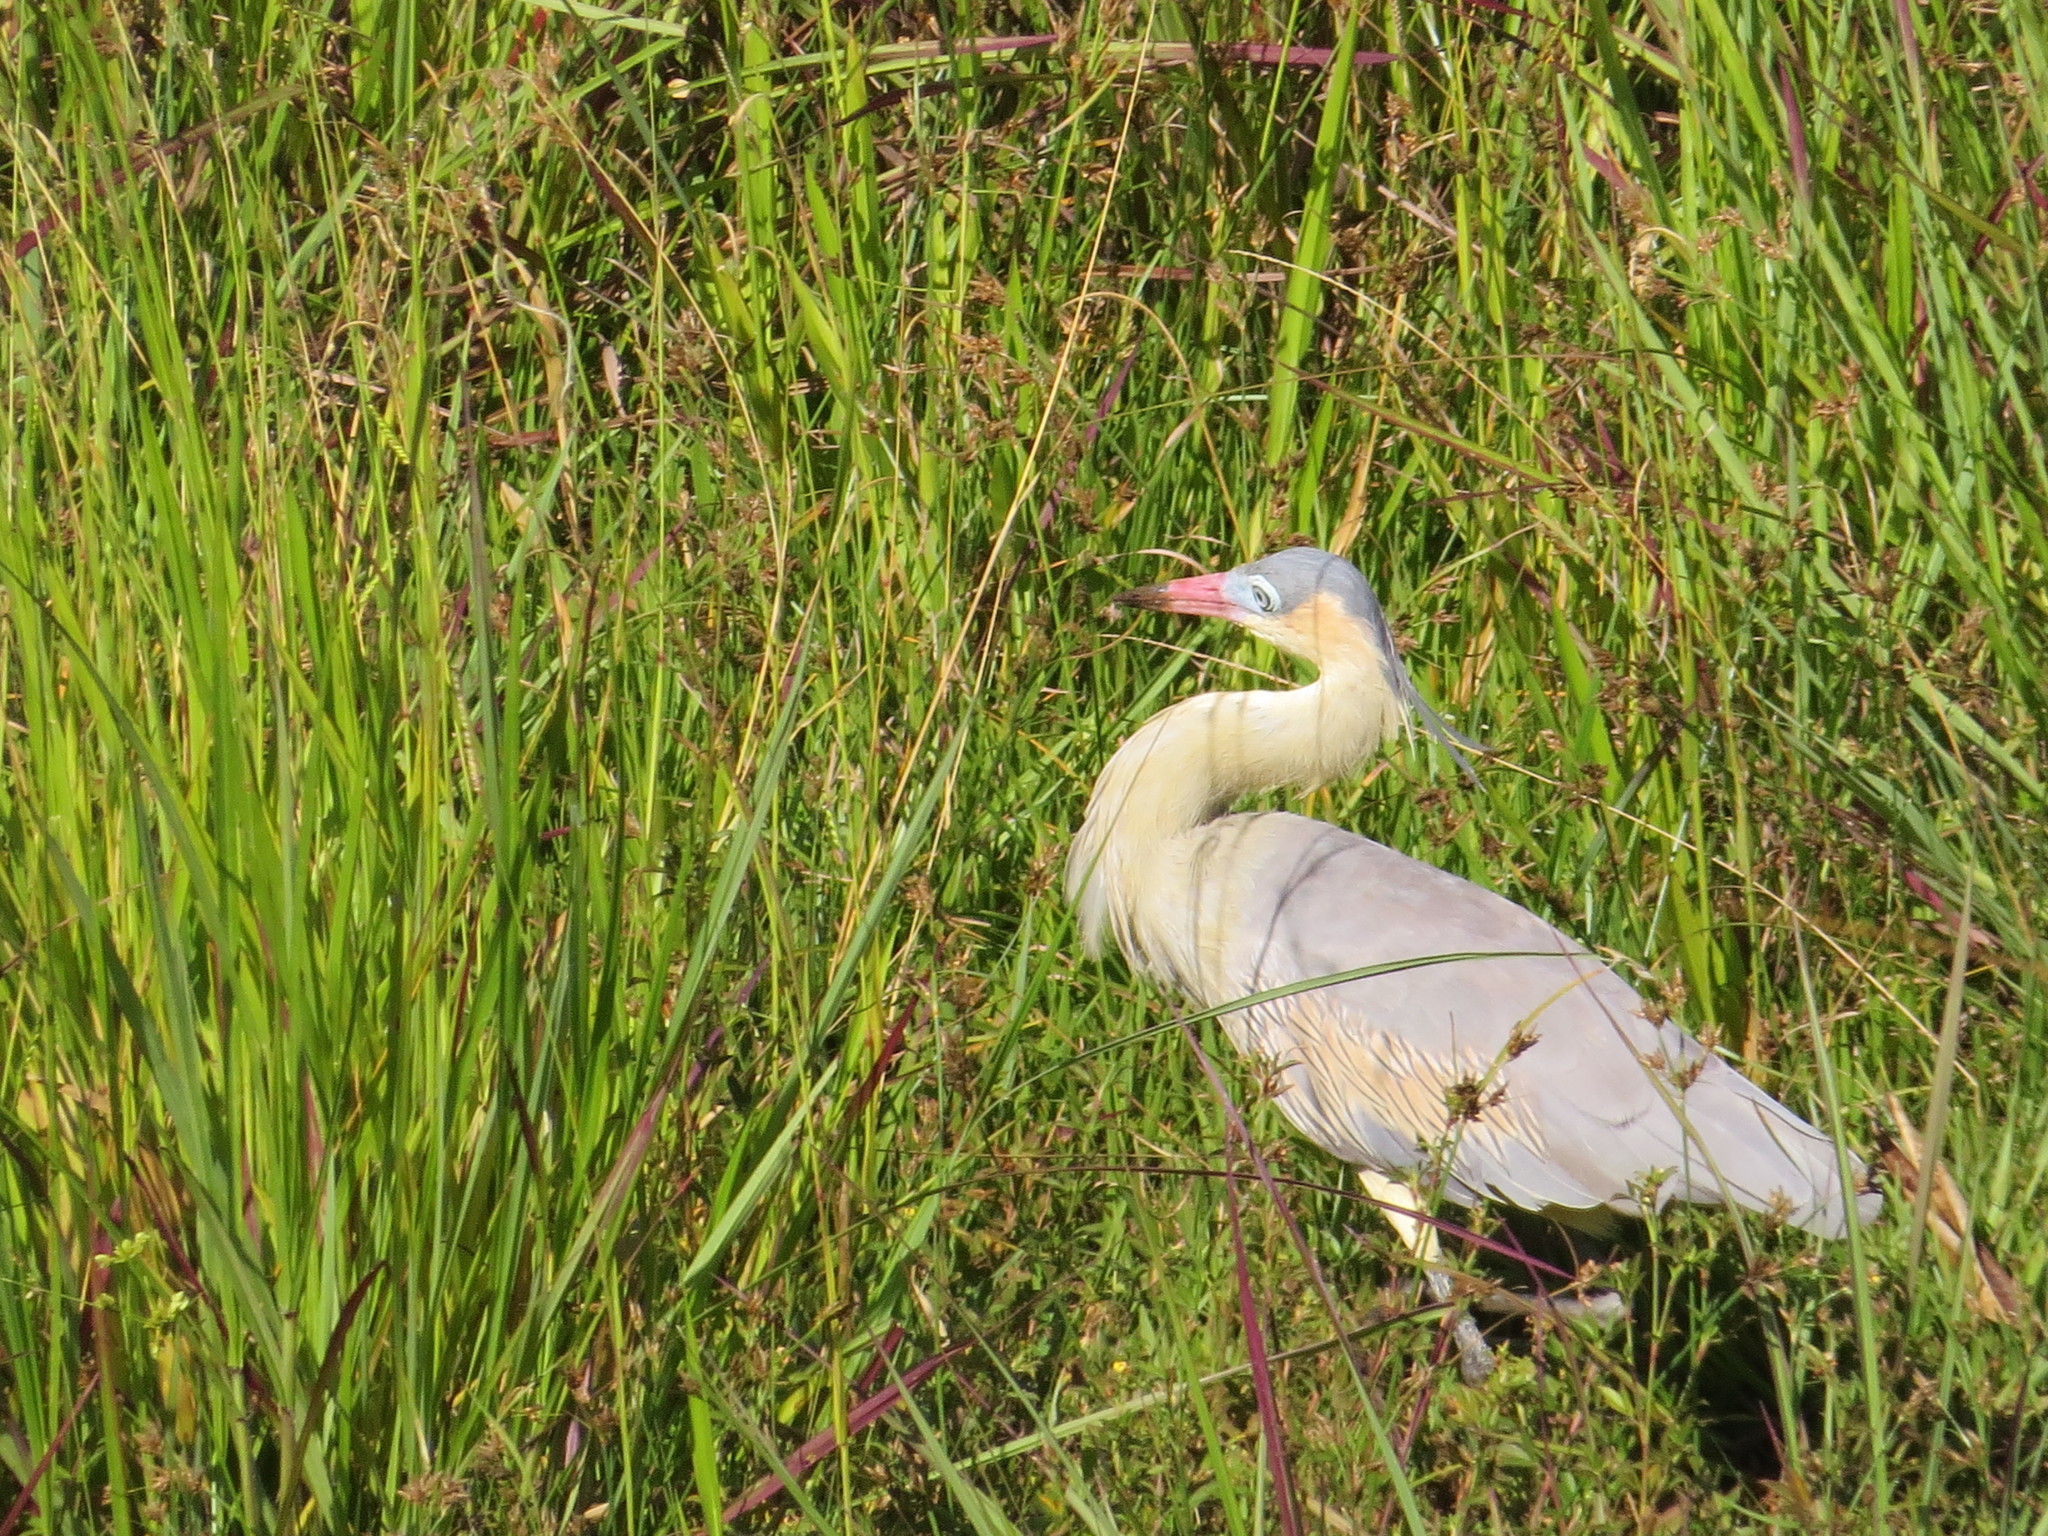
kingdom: Animalia
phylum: Chordata
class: Aves
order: Pelecaniformes
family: Ardeidae
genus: Syrigma
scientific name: Syrigma sibilatrix
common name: Whistling heron
